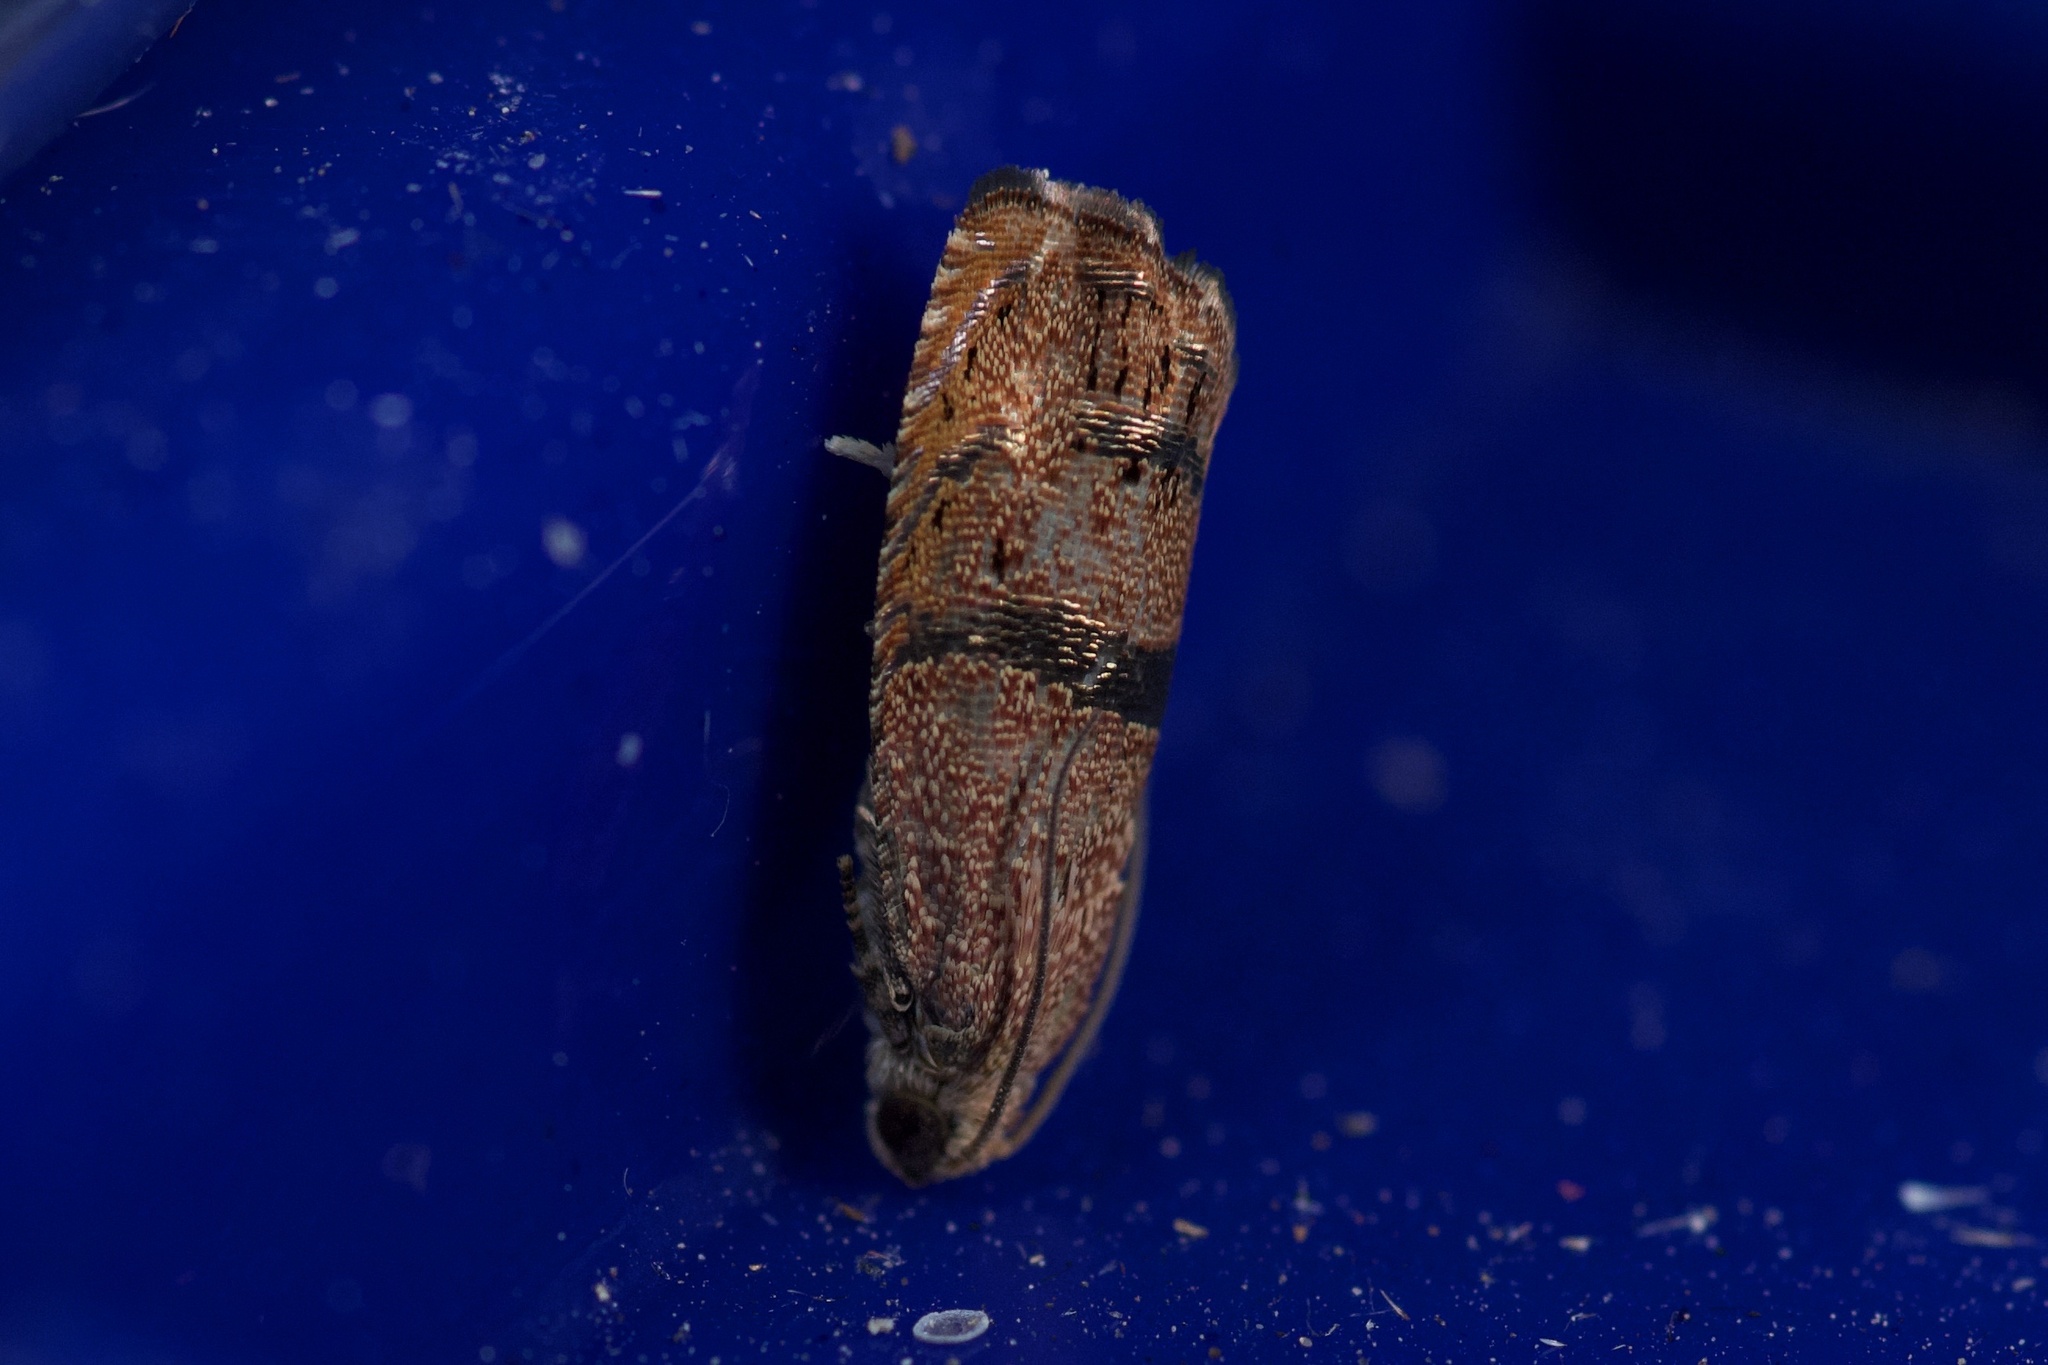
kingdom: Animalia
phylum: Arthropoda
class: Insecta
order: Lepidoptera
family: Tortricidae
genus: Cydia
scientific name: Cydia latiferreana
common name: Filbertworm moth
